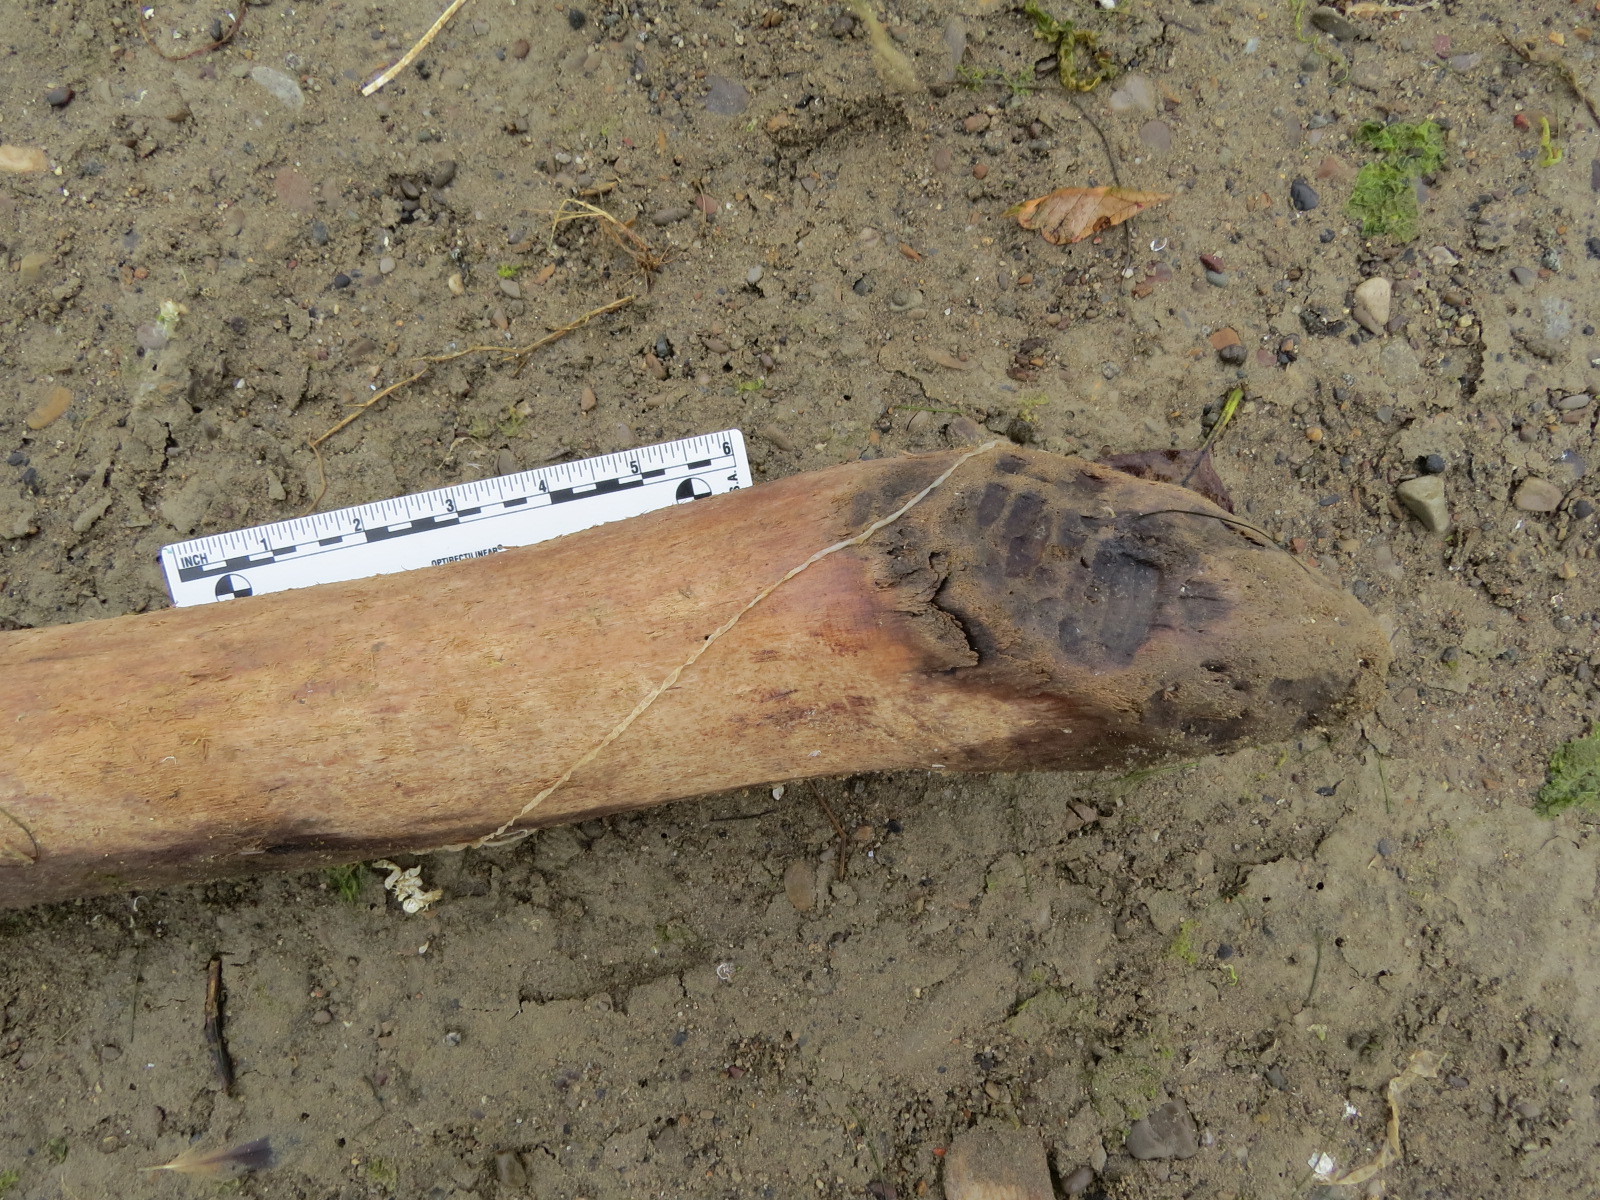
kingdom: Animalia
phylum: Chordata
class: Mammalia
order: Rodentia
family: Castoridae
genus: Castor
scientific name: Castor canadensis
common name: American beaver
